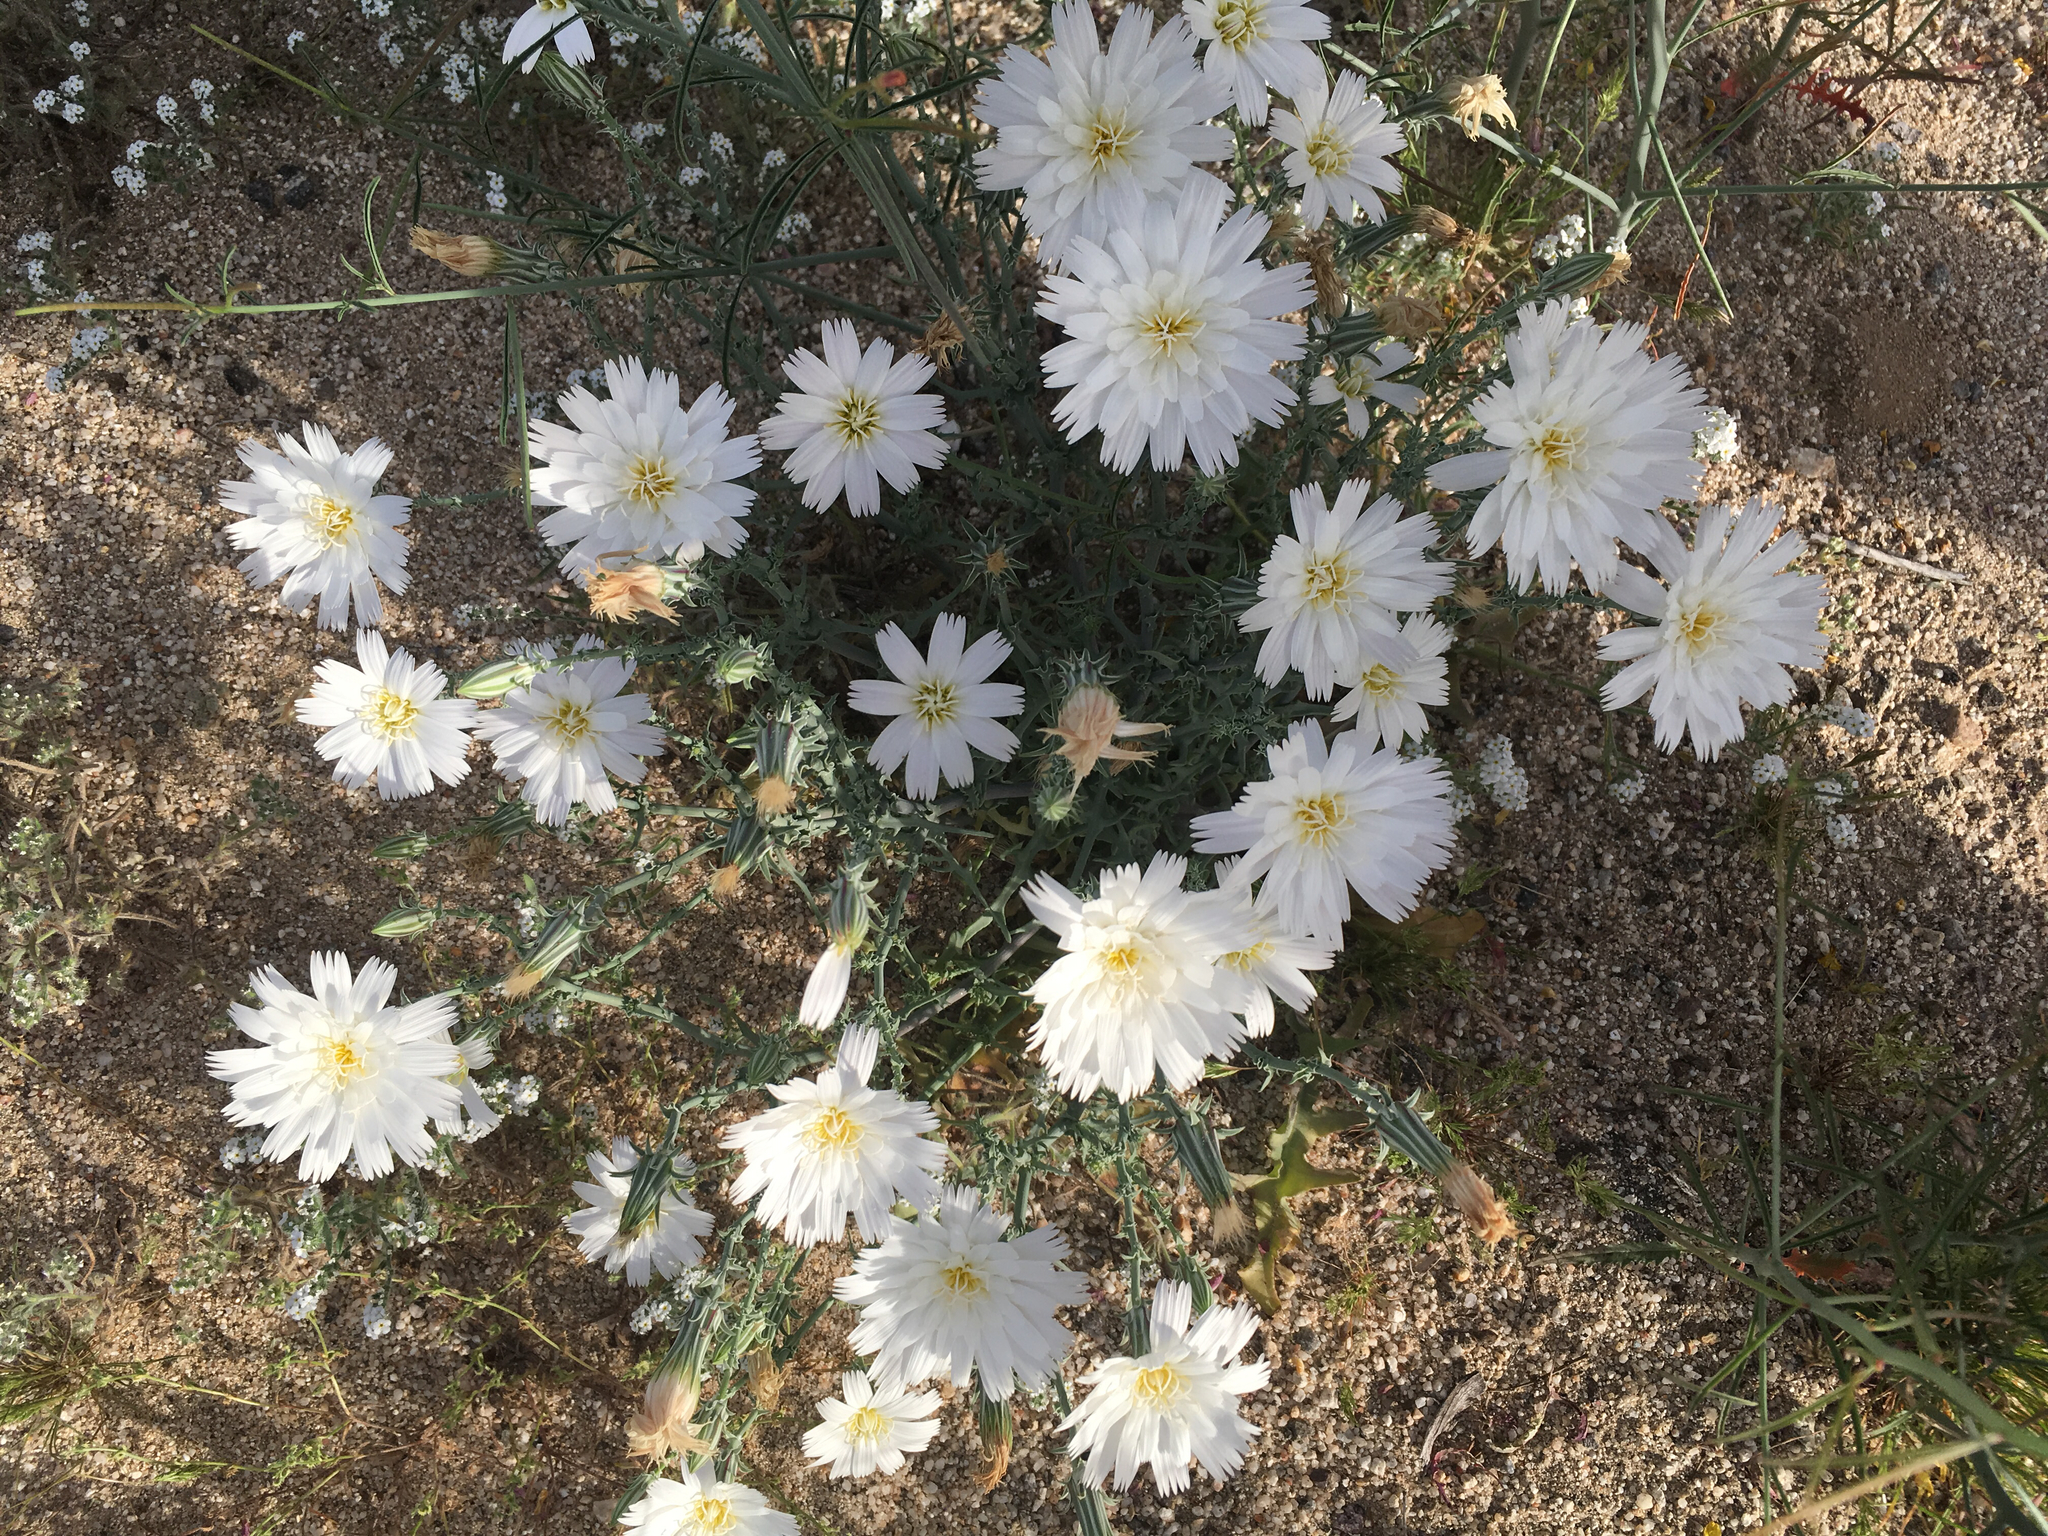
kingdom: Plantae
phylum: Tracheophyta
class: Magnoliopsida
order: Asterales
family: Asteraceae
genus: Rafinesquia
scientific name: Rafinesquia neomexicana
